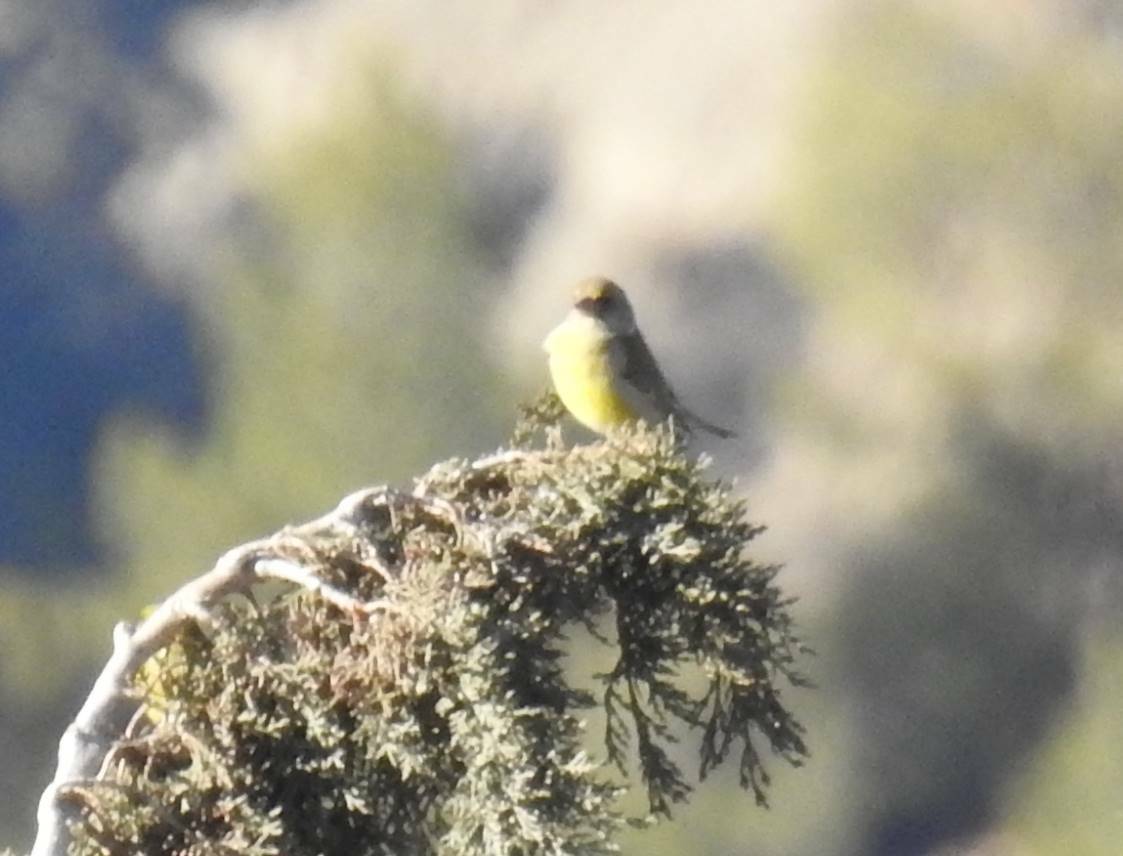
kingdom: Plantae
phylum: Tracheophyta
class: Liliopsida
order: Poales
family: Poaceae
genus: Chloris
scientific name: Chloris chloris
